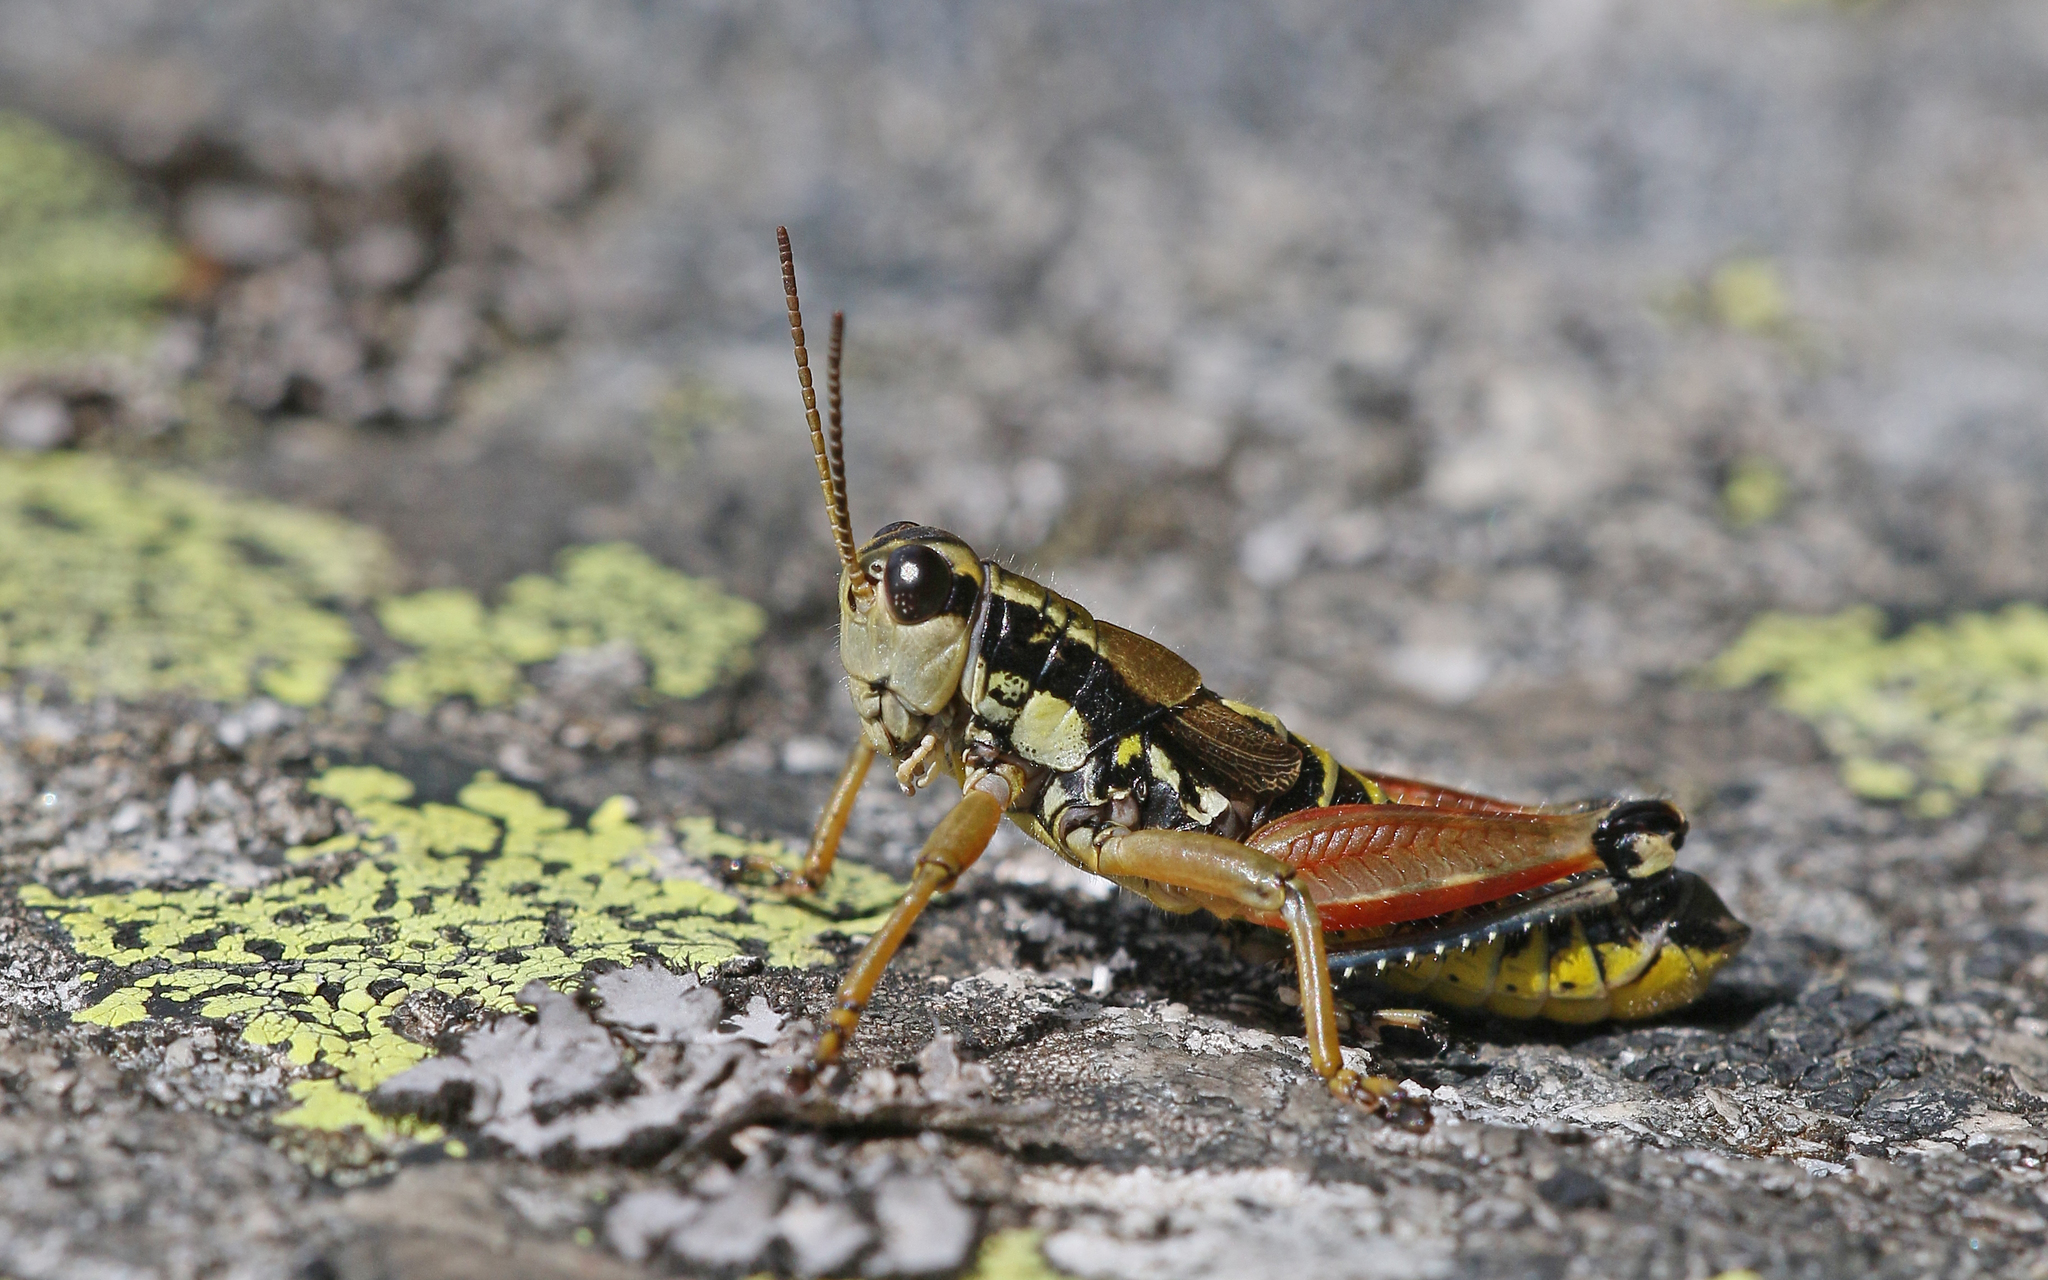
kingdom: Animalia
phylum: Arthropoda
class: Insecta
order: Orthoptera
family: Acrididae
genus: Podisma
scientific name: Podisma pedestris
